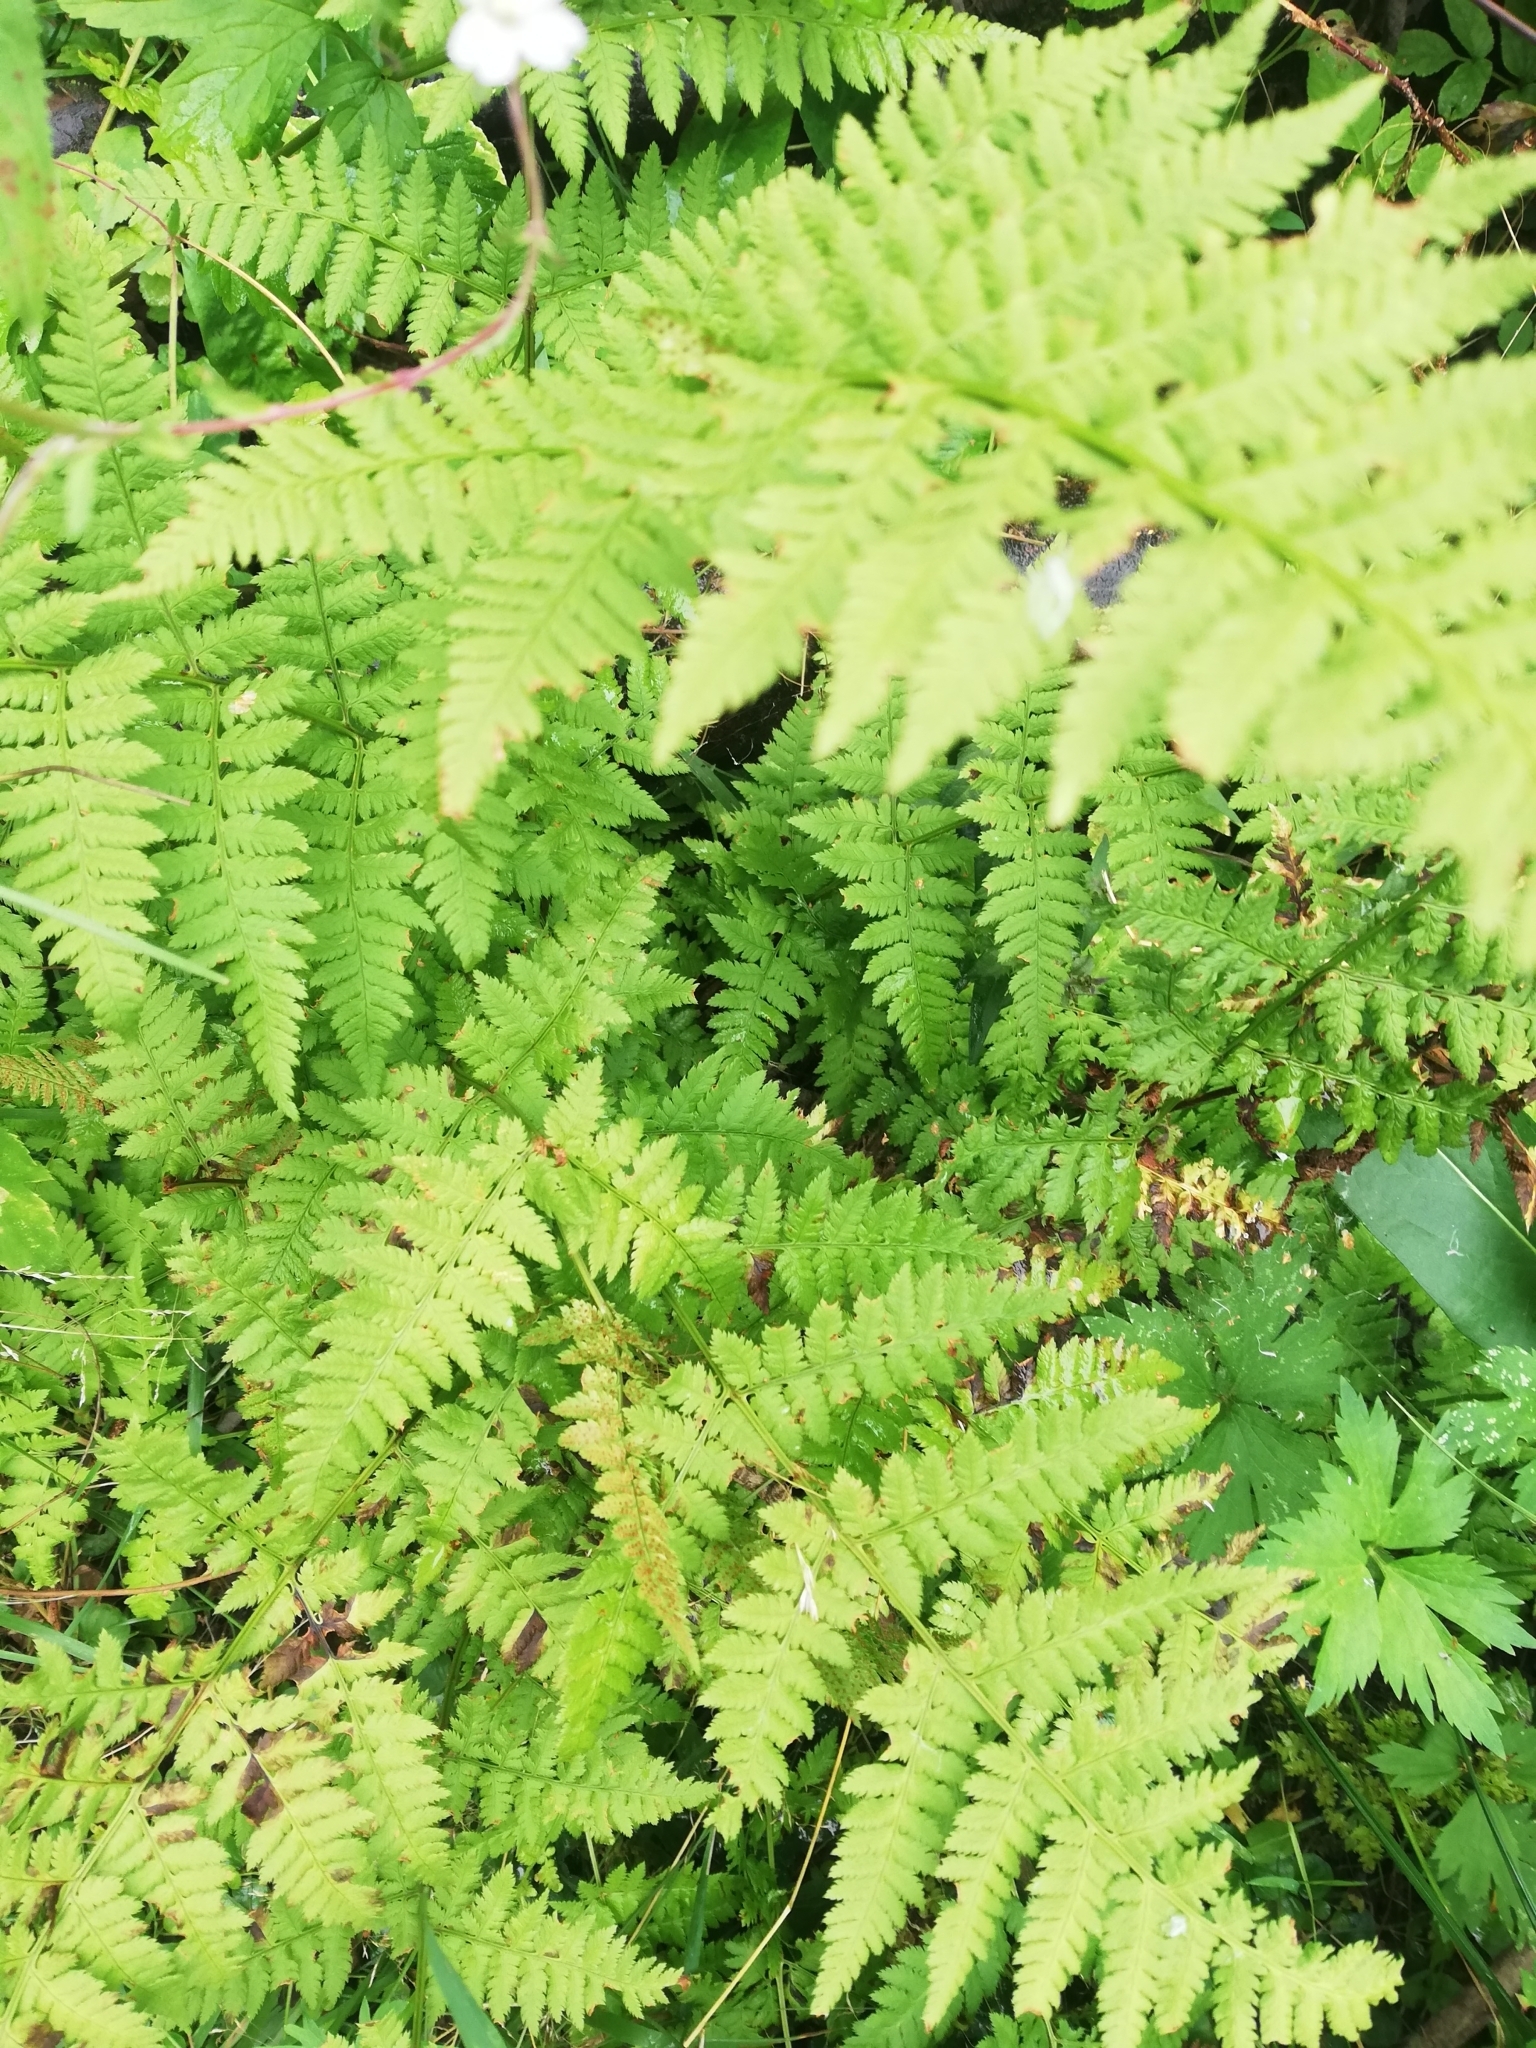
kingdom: Plantae
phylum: Tracheophyta
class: Polypodiopsida
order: Polypodiales
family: Dryopteridaceae
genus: Dryopteris
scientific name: Dryopteris carthusiana
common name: Narrow buckler-fern
